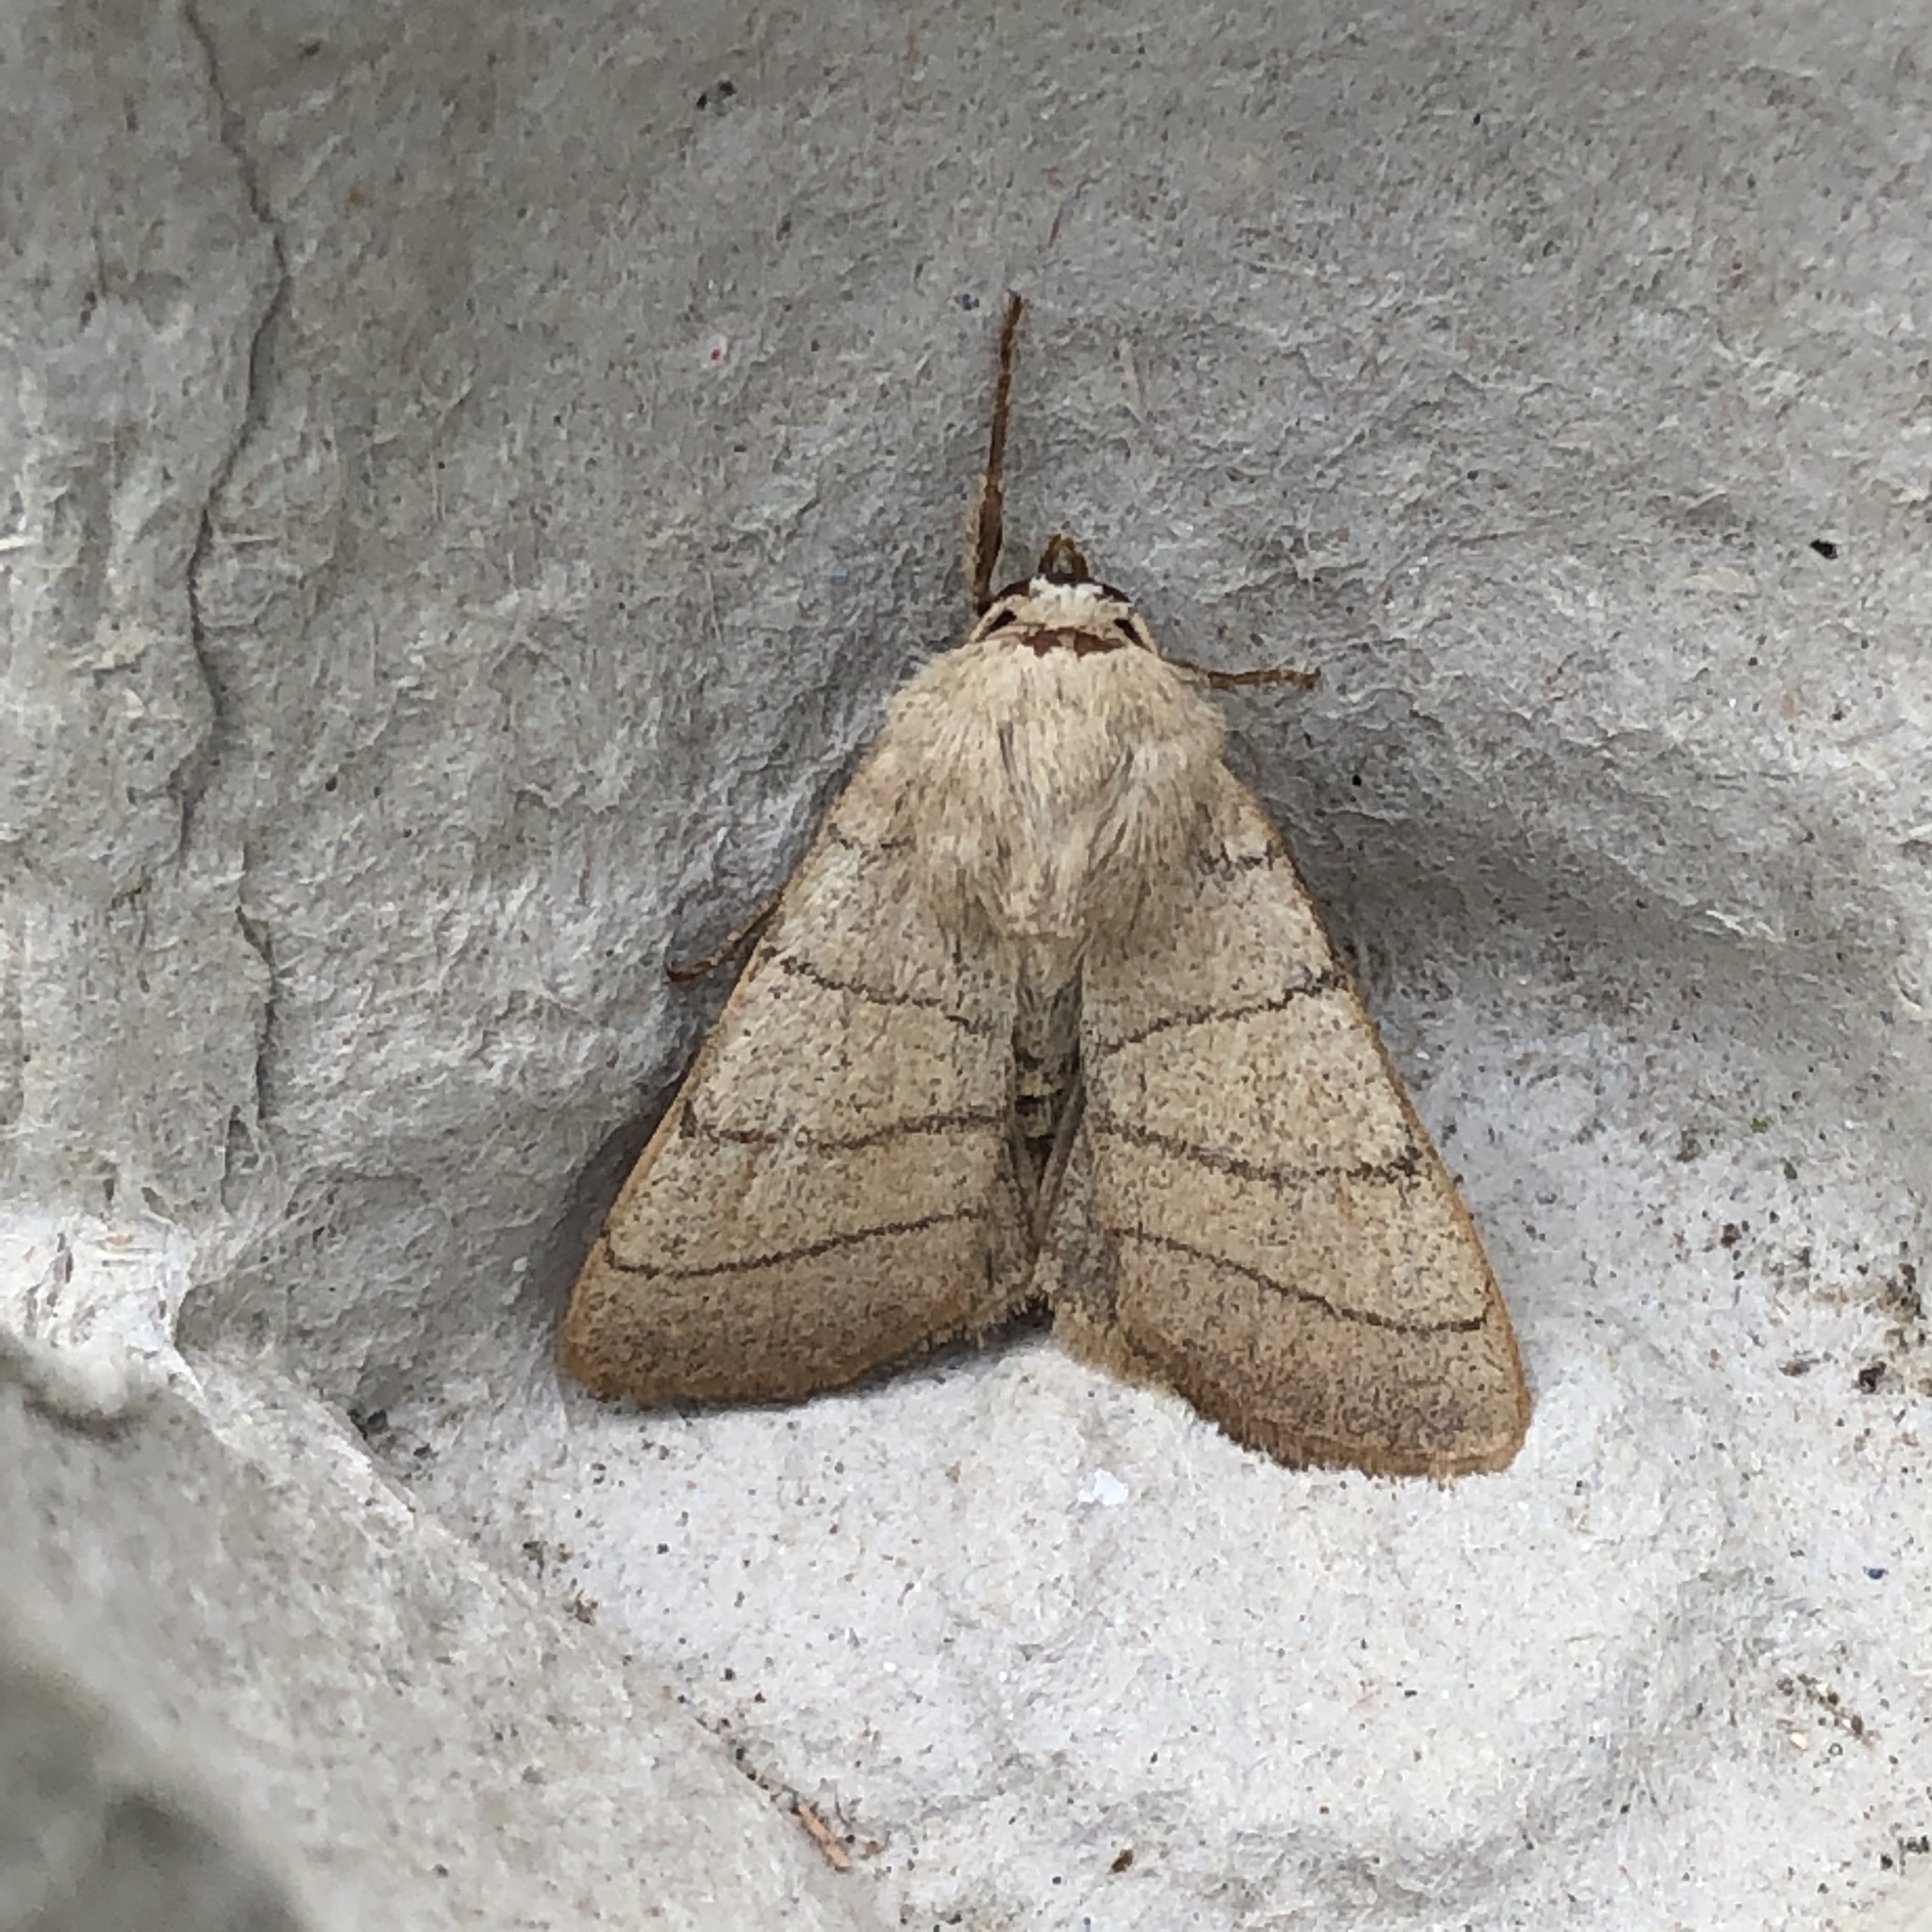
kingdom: Animalia
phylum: Arthropoda
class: Insecta
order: Lepidoptera
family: Noctuidae
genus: Charanyca
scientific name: Charanyca trigrammica
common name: Treble lines
